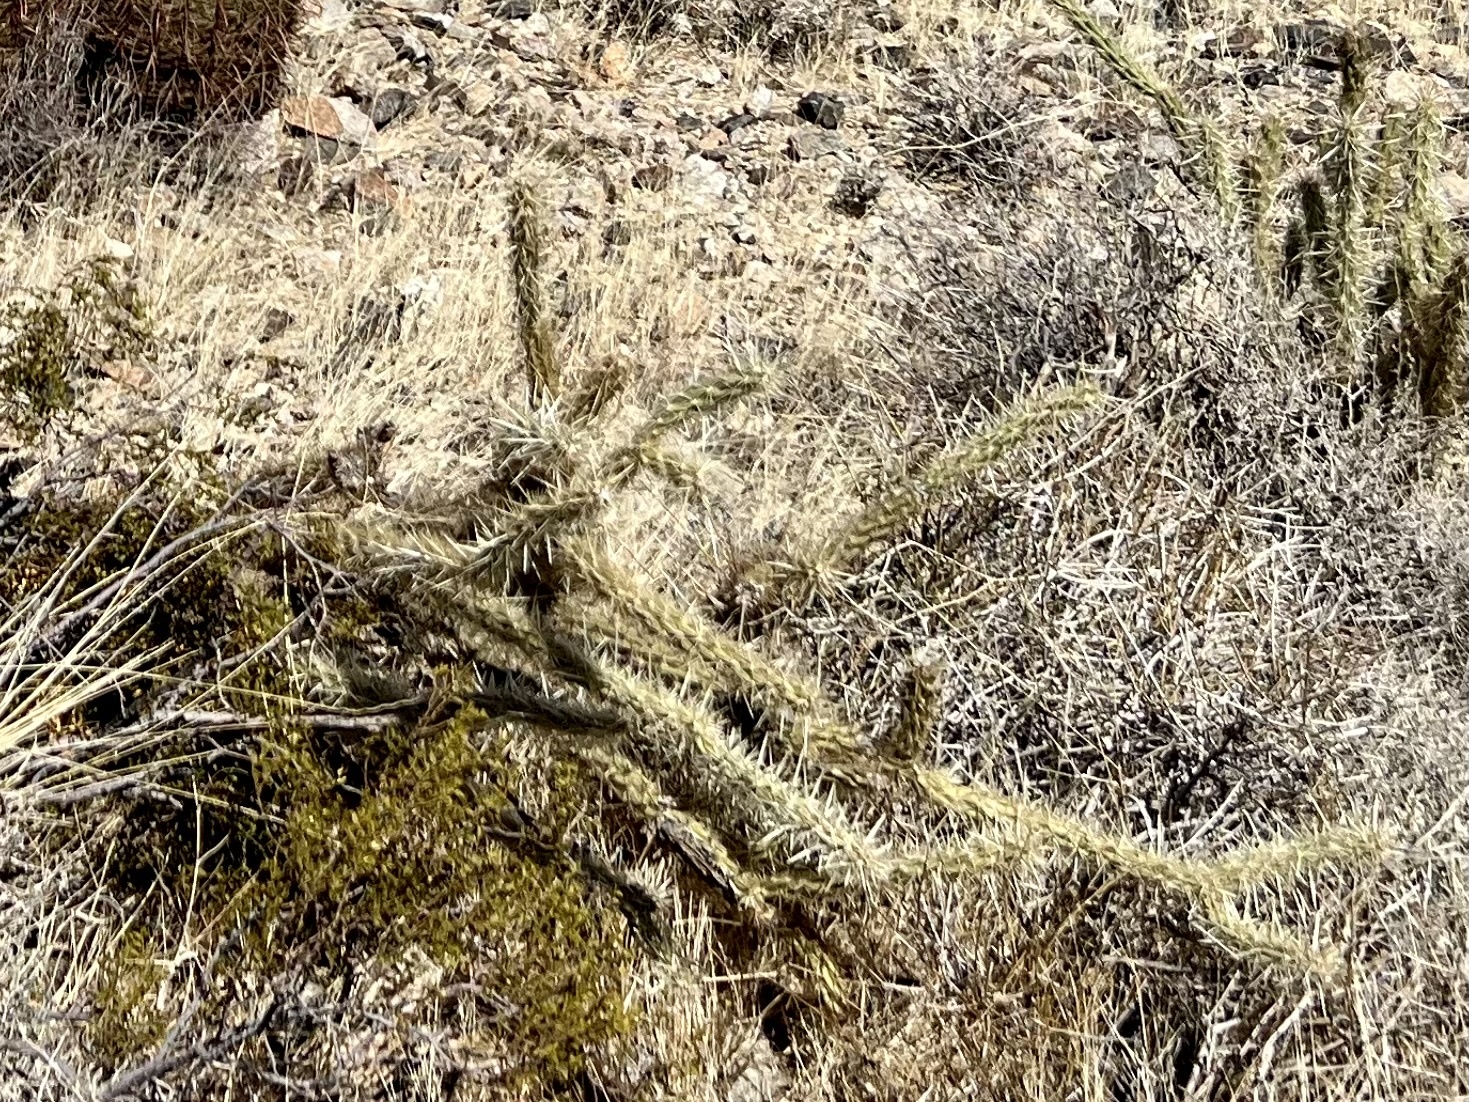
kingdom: Plantae
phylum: Tracheophyta
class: Magnoliopsida
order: Caryophyllales
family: Cactaceae
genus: Cylindropuntia
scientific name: Cylindropuntia acanthocarpa
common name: Buckhorn cholla
